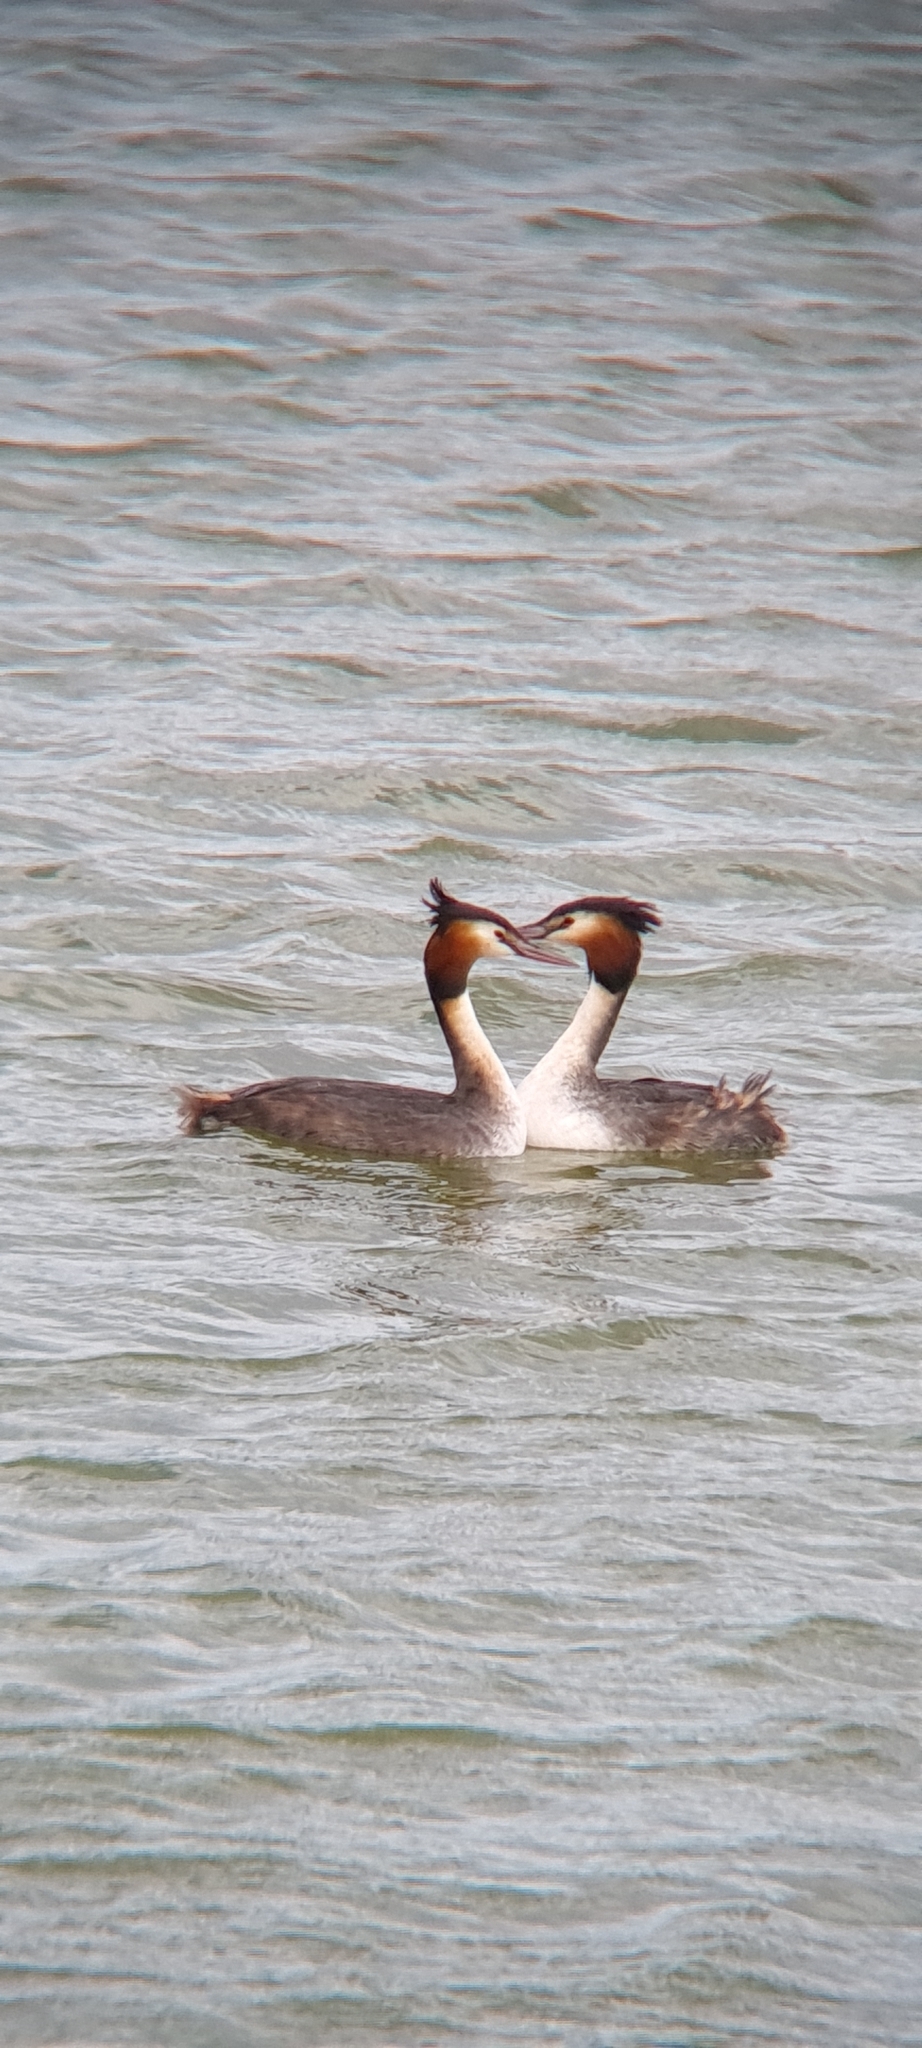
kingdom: Animalia
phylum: Chordata
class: Aves
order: Podicipediformes
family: Podicipedidae
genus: Podiceps
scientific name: Podiceps cristatus
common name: Great crested grebe
